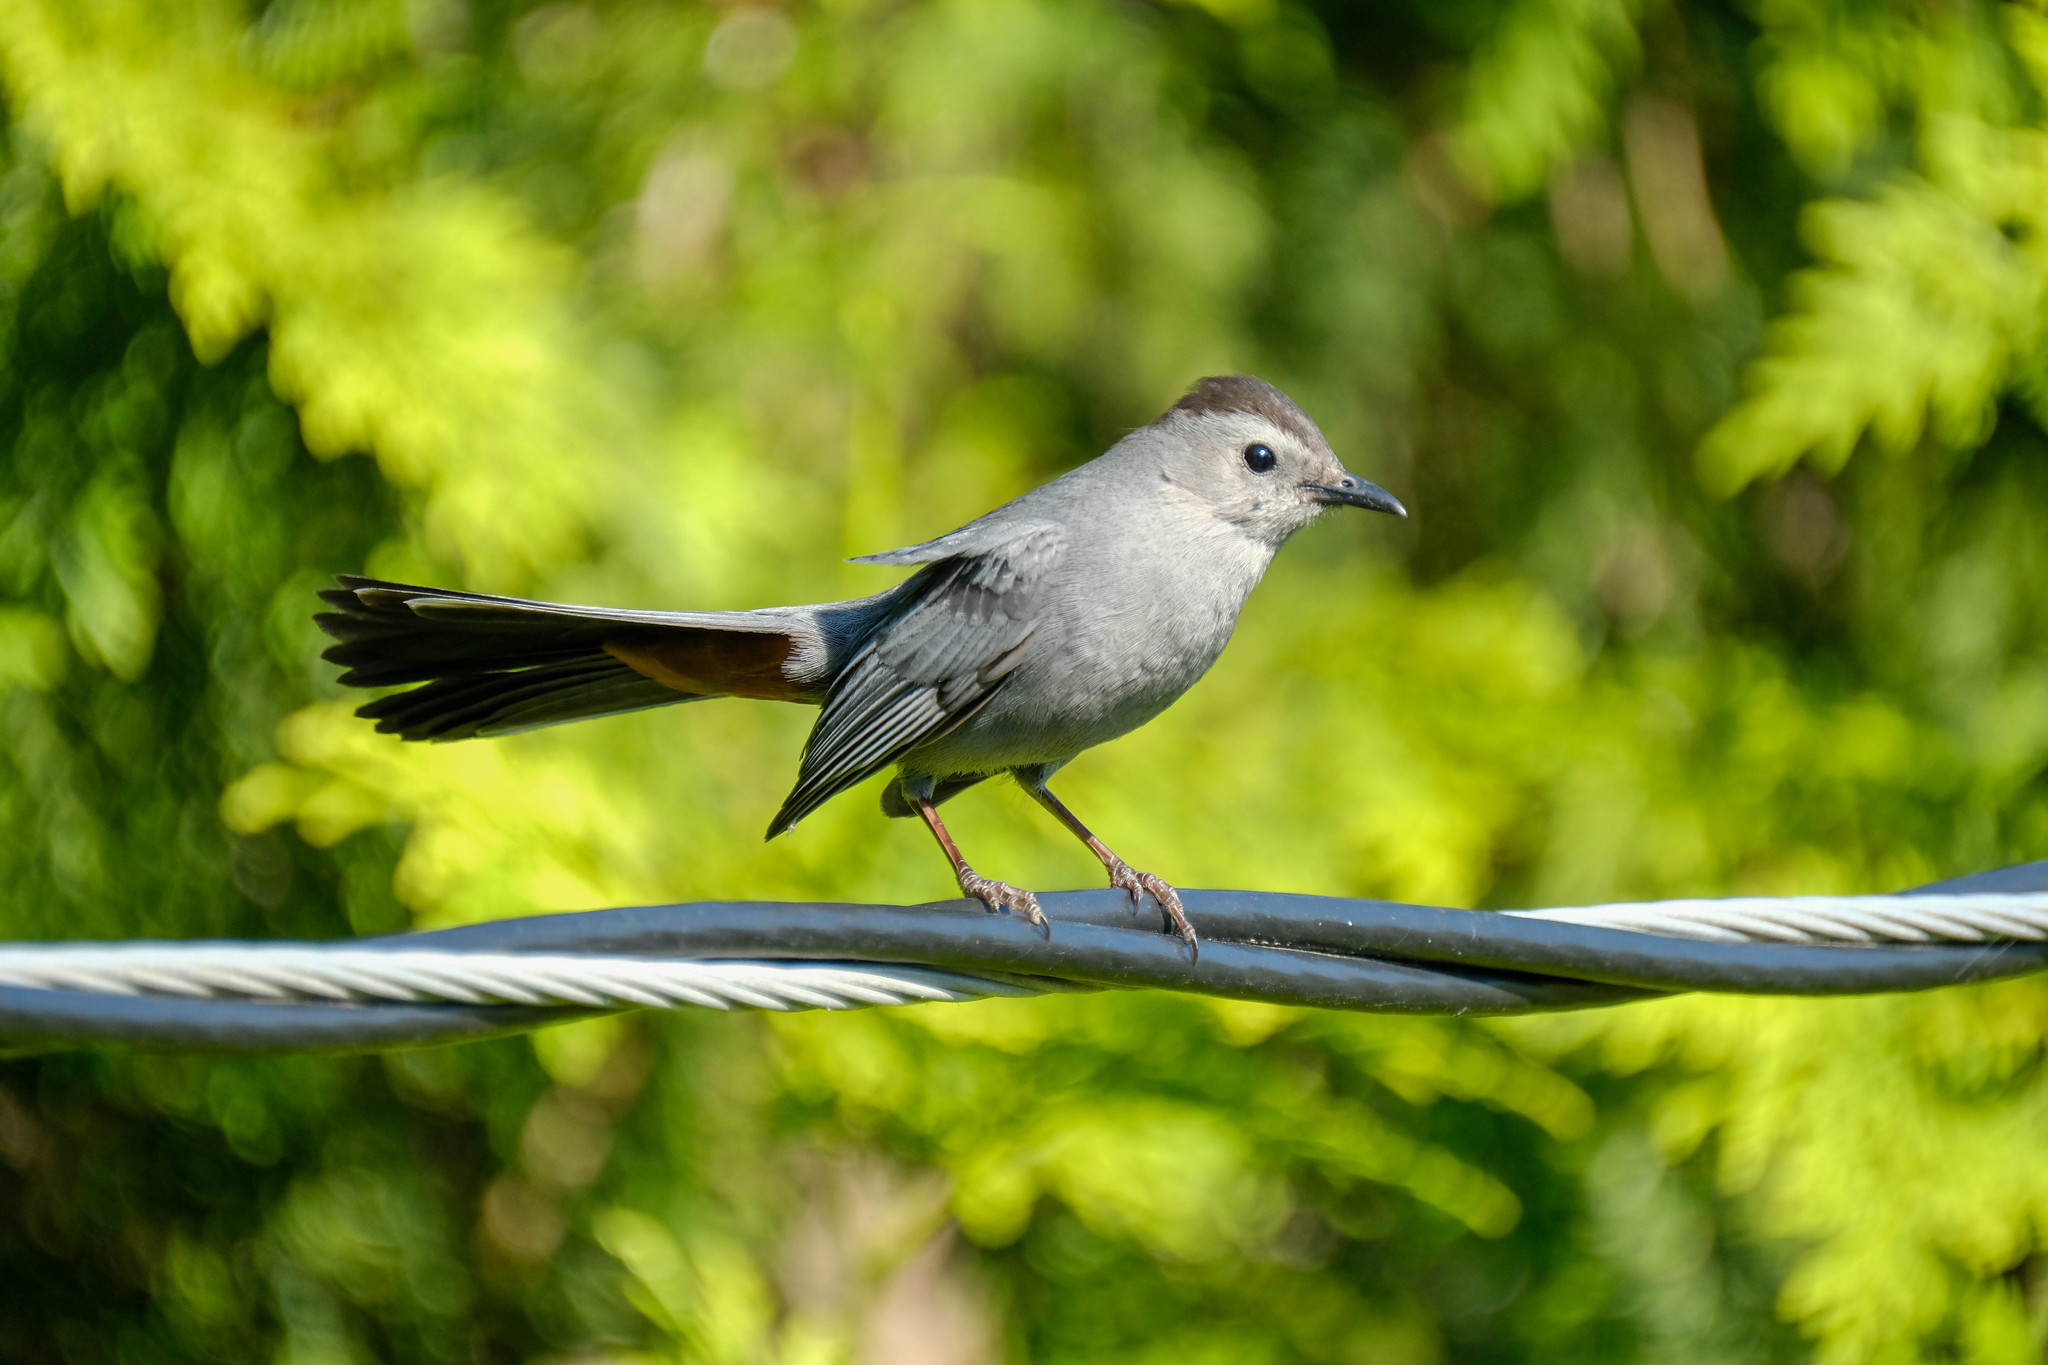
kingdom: Animalia
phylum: Chordata
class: Aves
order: Passeriformes
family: Mimidae
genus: Dumetella
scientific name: Dumetella carolinensis
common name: Gray catbird
